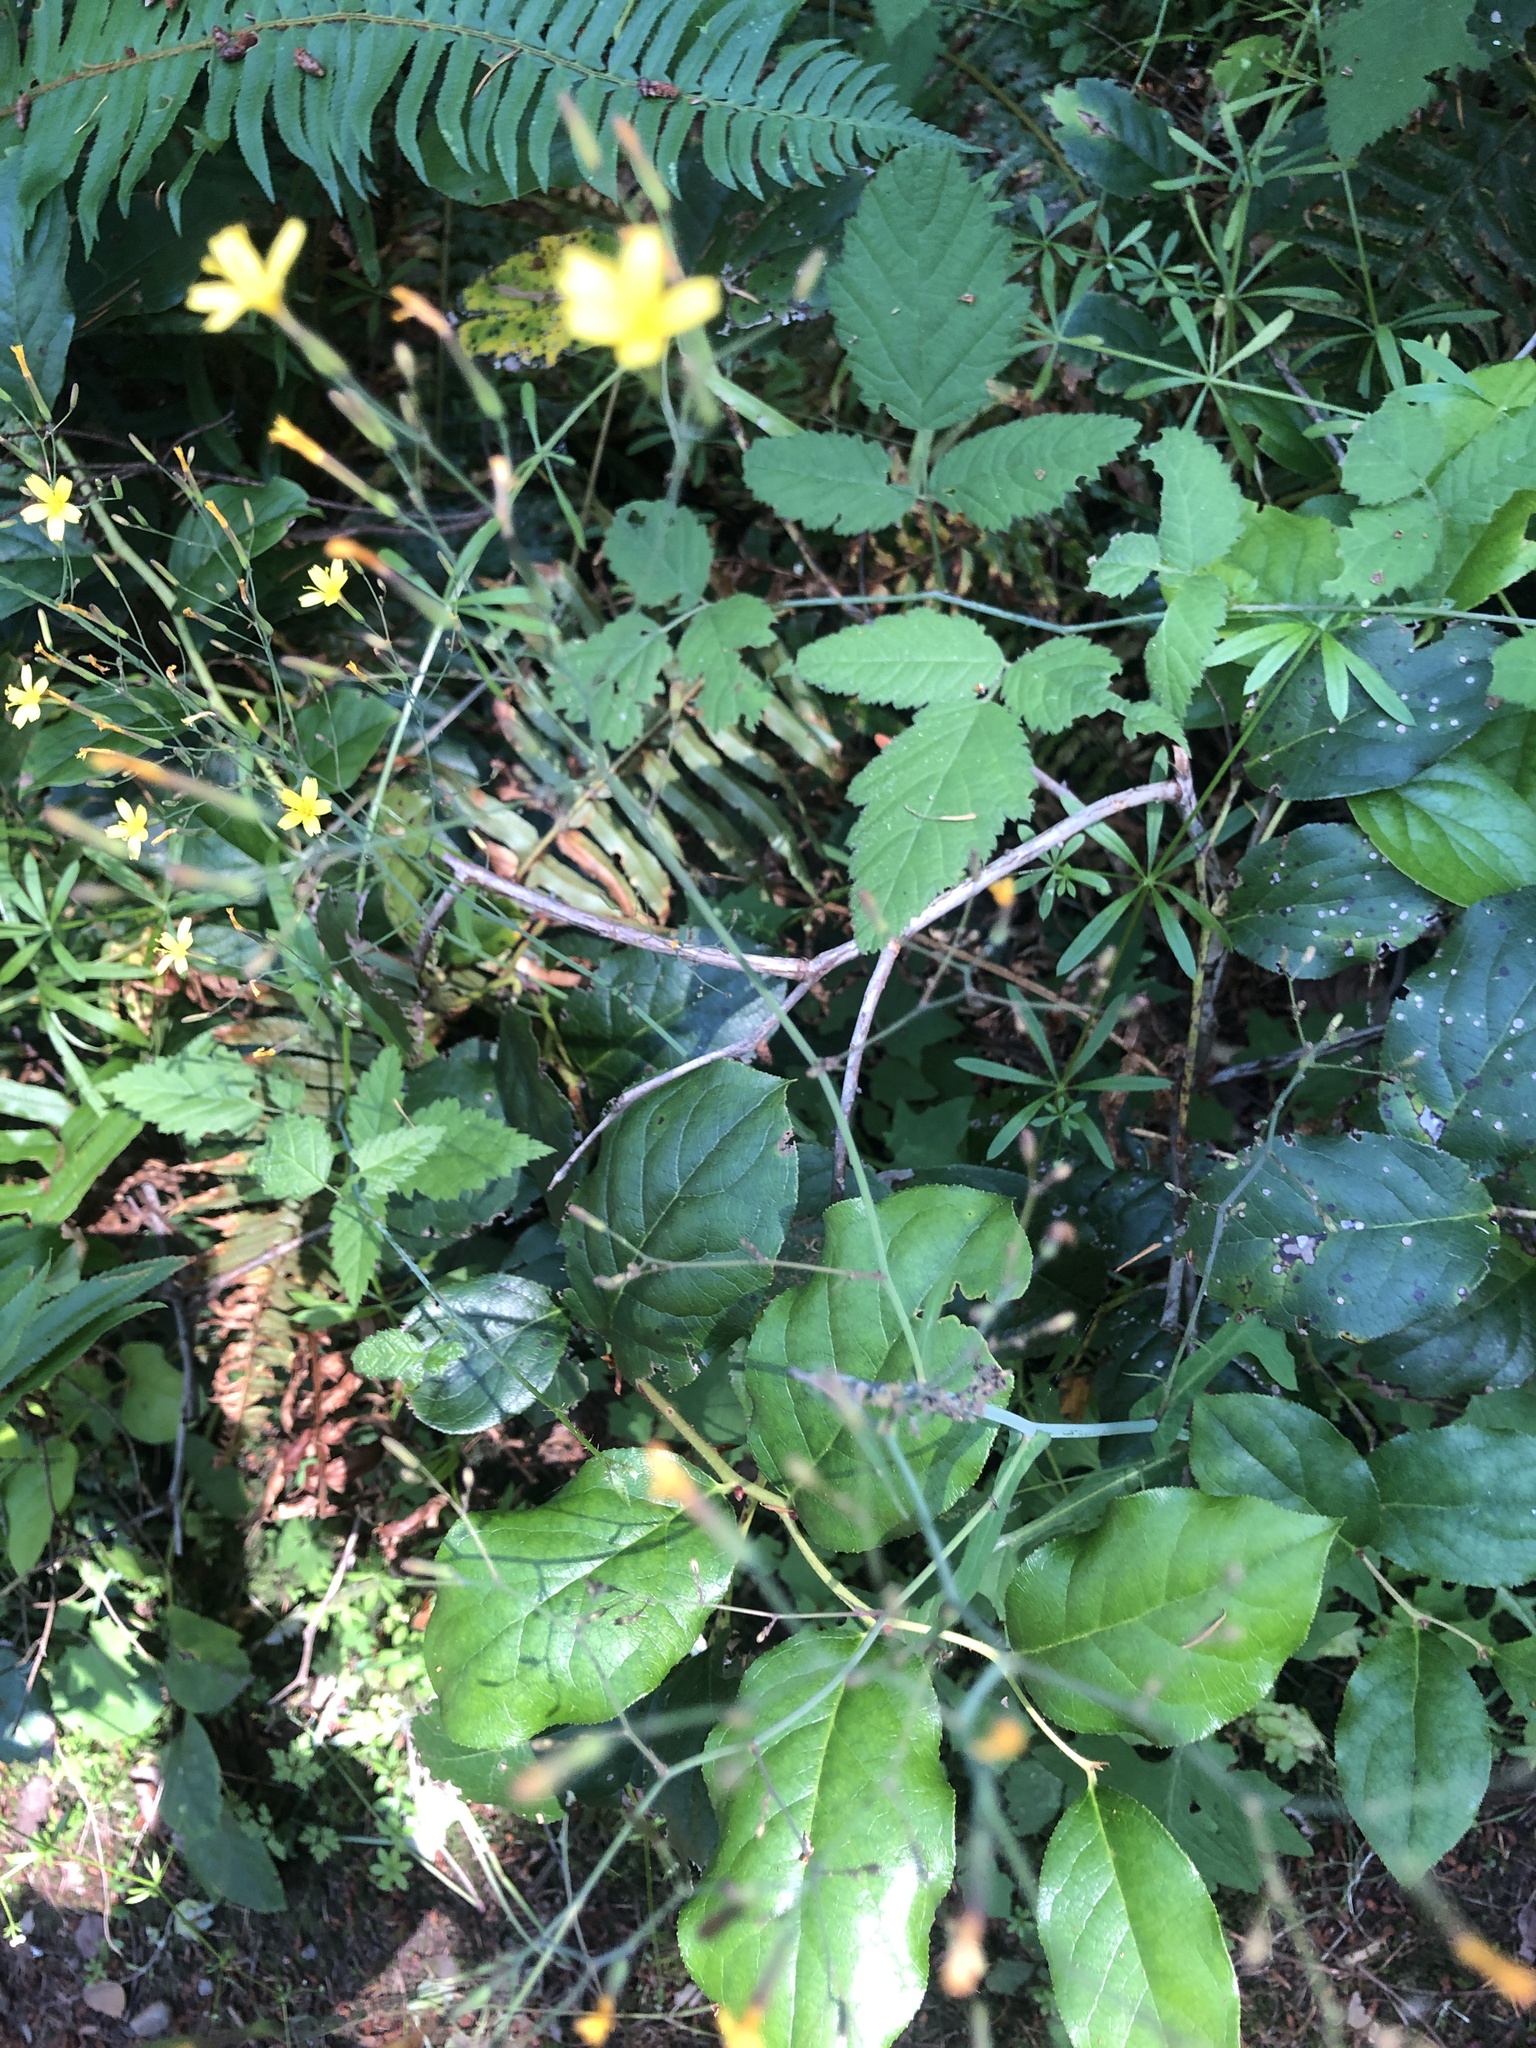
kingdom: Plantae
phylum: Tracheophyta
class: Magnoliopsida
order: Asterales
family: Asteraceae
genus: Mycelis
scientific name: Mycelis muralis
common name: Wall lettuce
